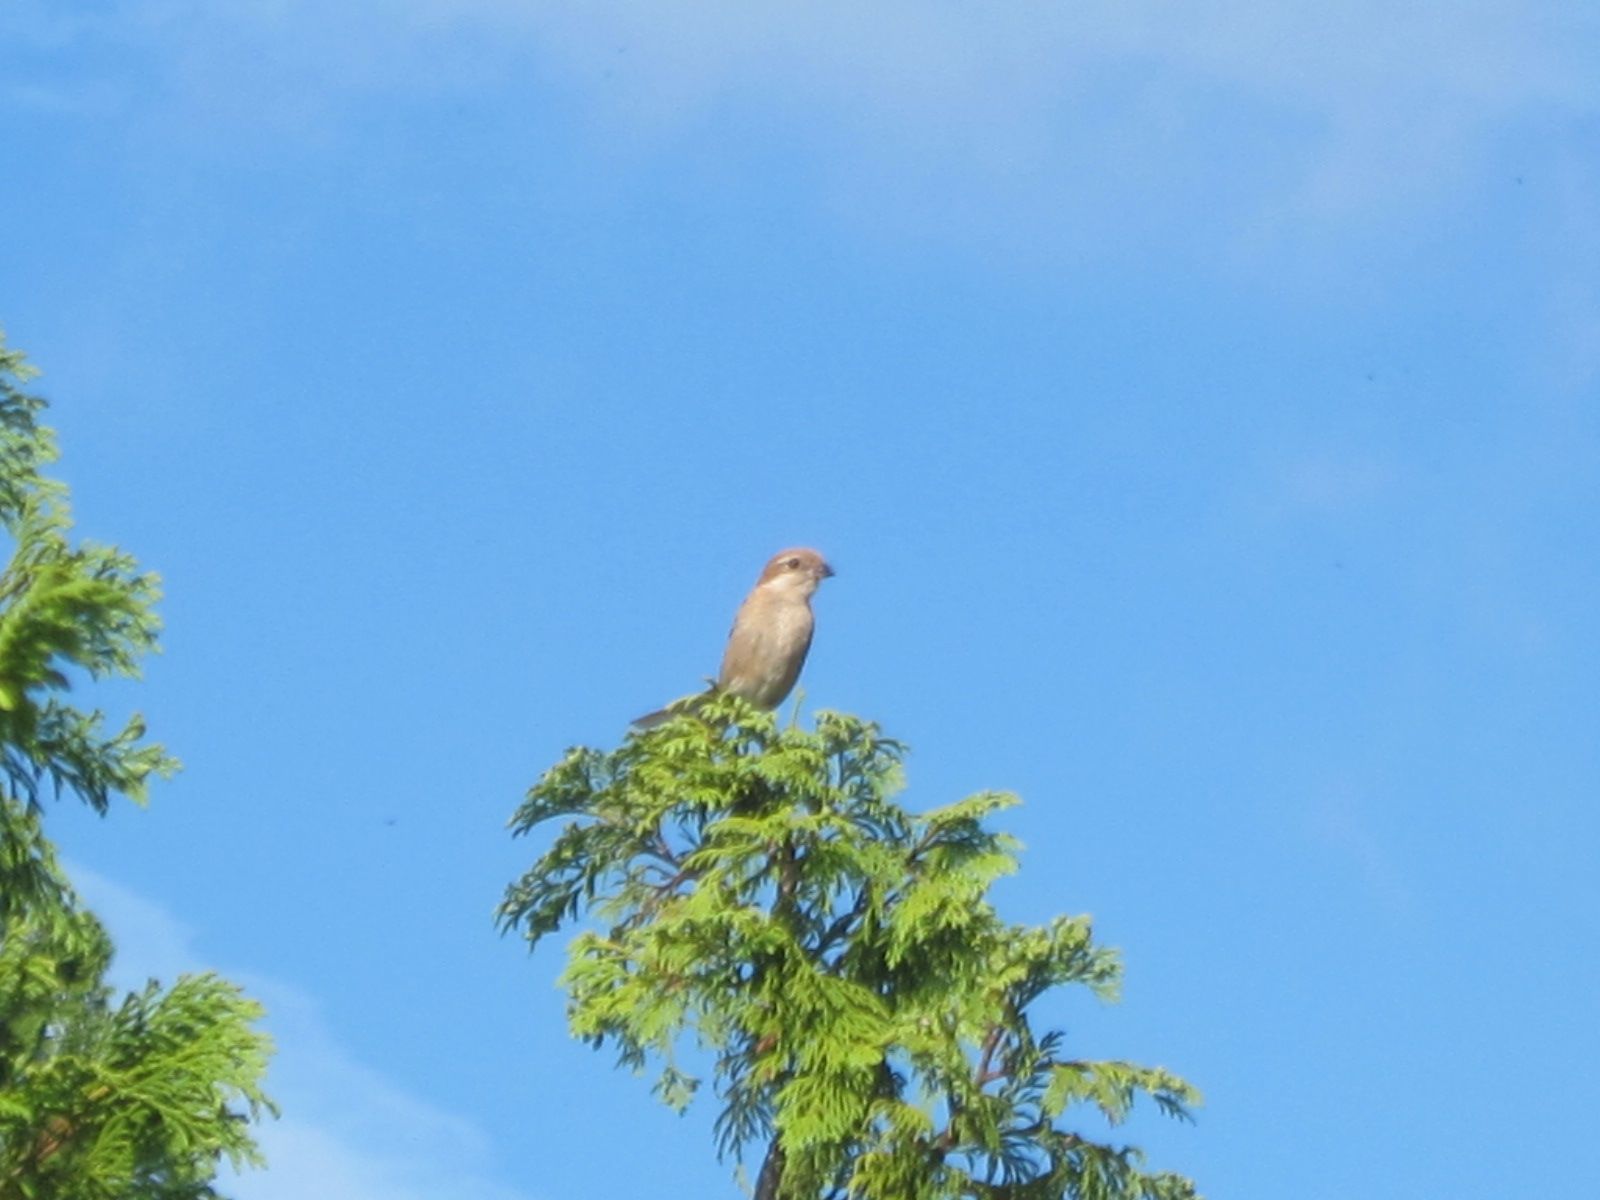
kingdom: Animalia
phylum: Chordata
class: Aves
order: Passeriformes
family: Laniidae
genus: Lanius
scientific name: Lanius bucephalus
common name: Bull-headed shrike
